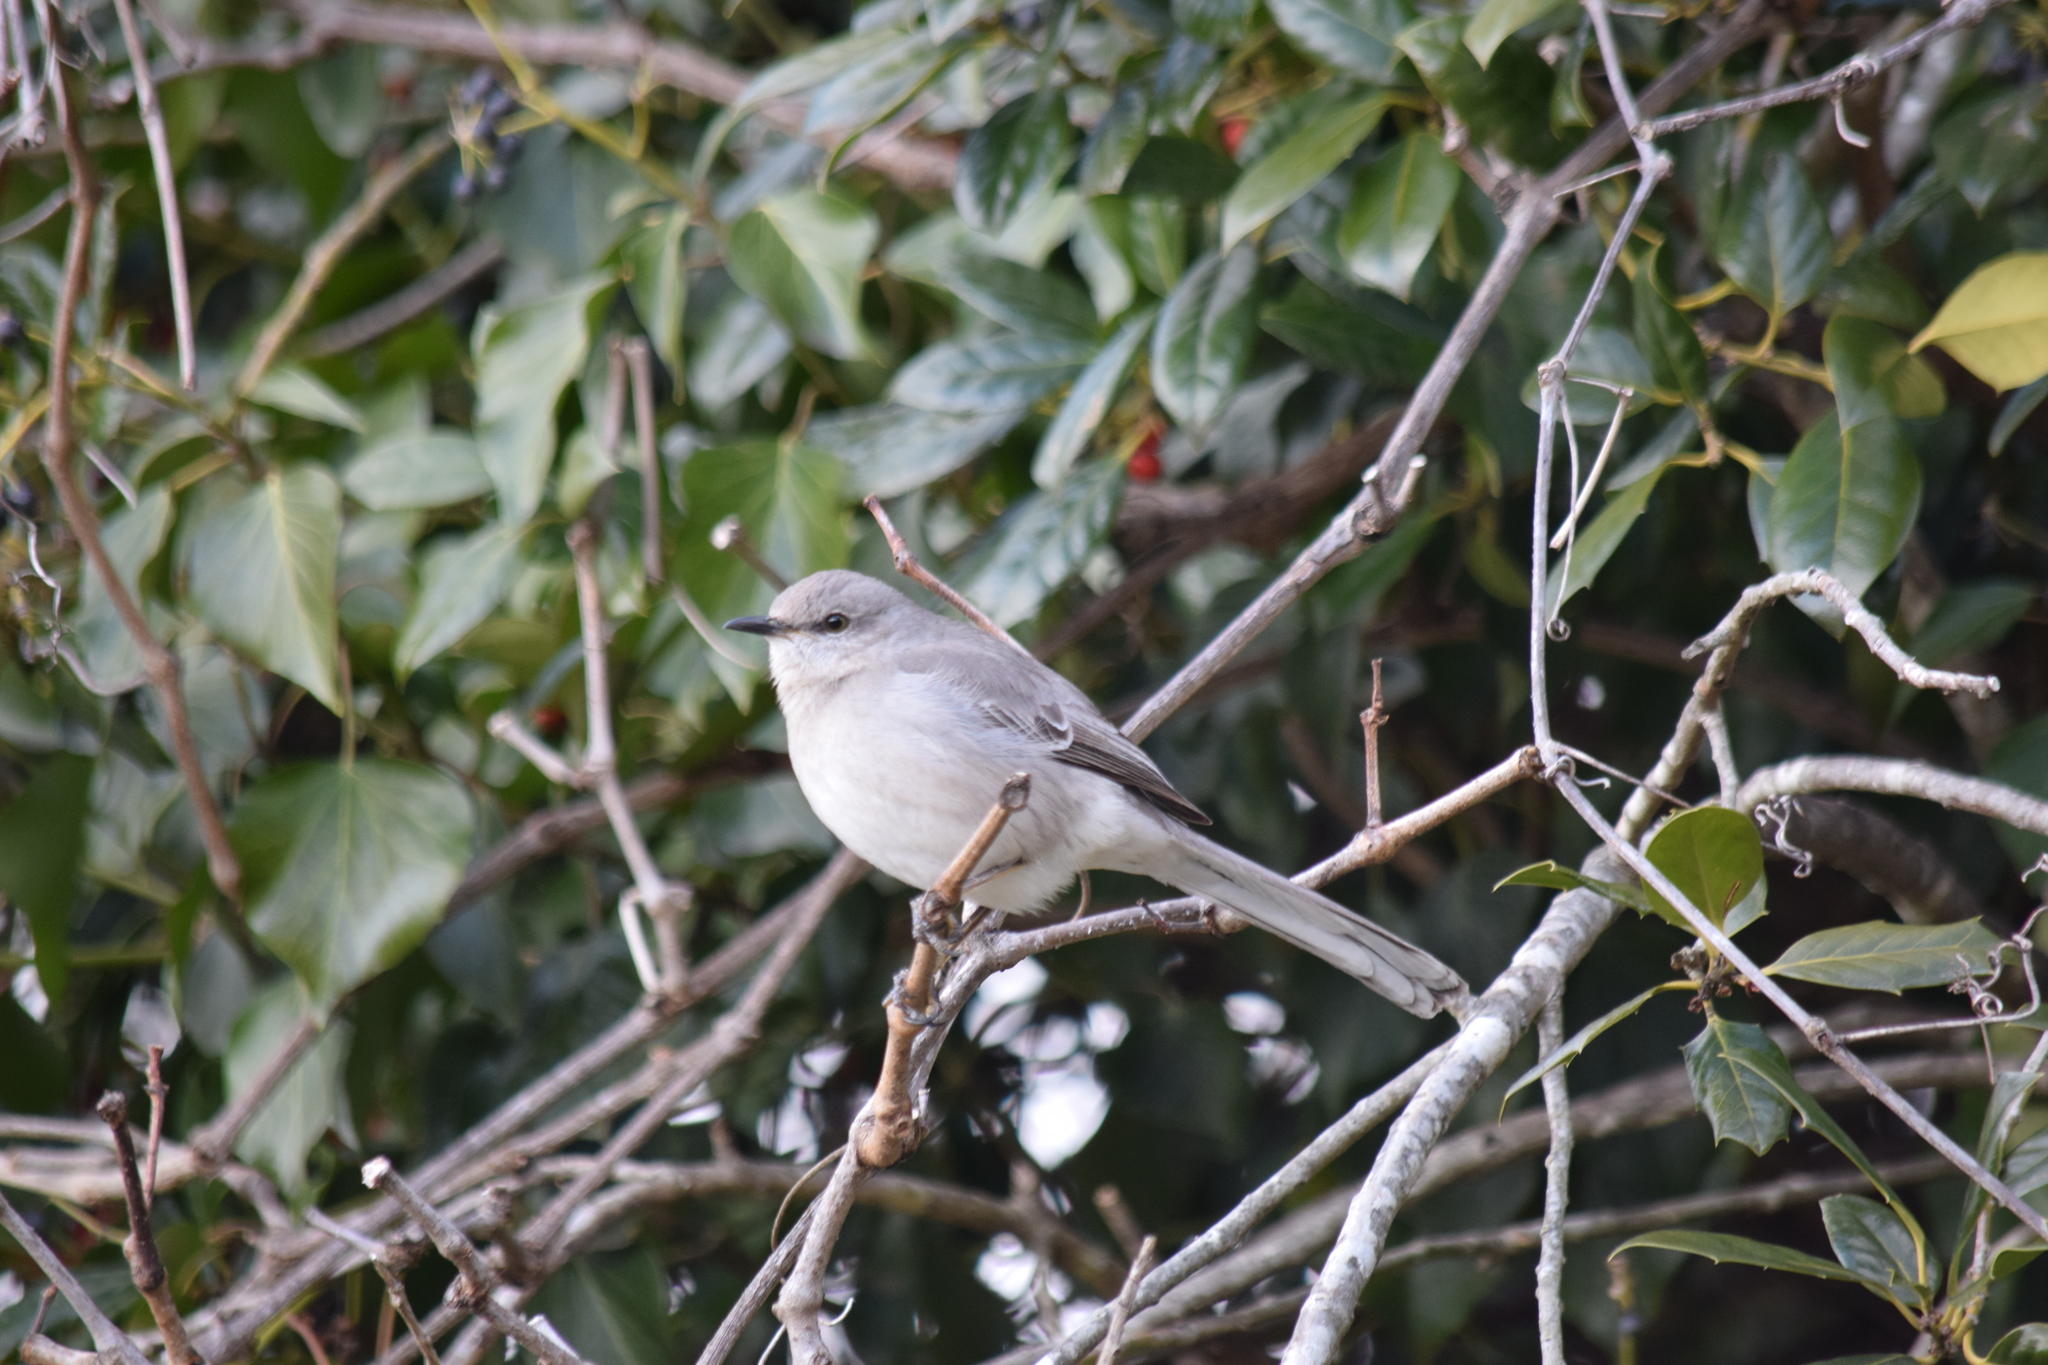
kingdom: Animalia
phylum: Chordata
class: Aves
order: Passeriformes
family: Mimidae
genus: Mimus
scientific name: Mimus polyglottos
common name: Northern mockingbird
